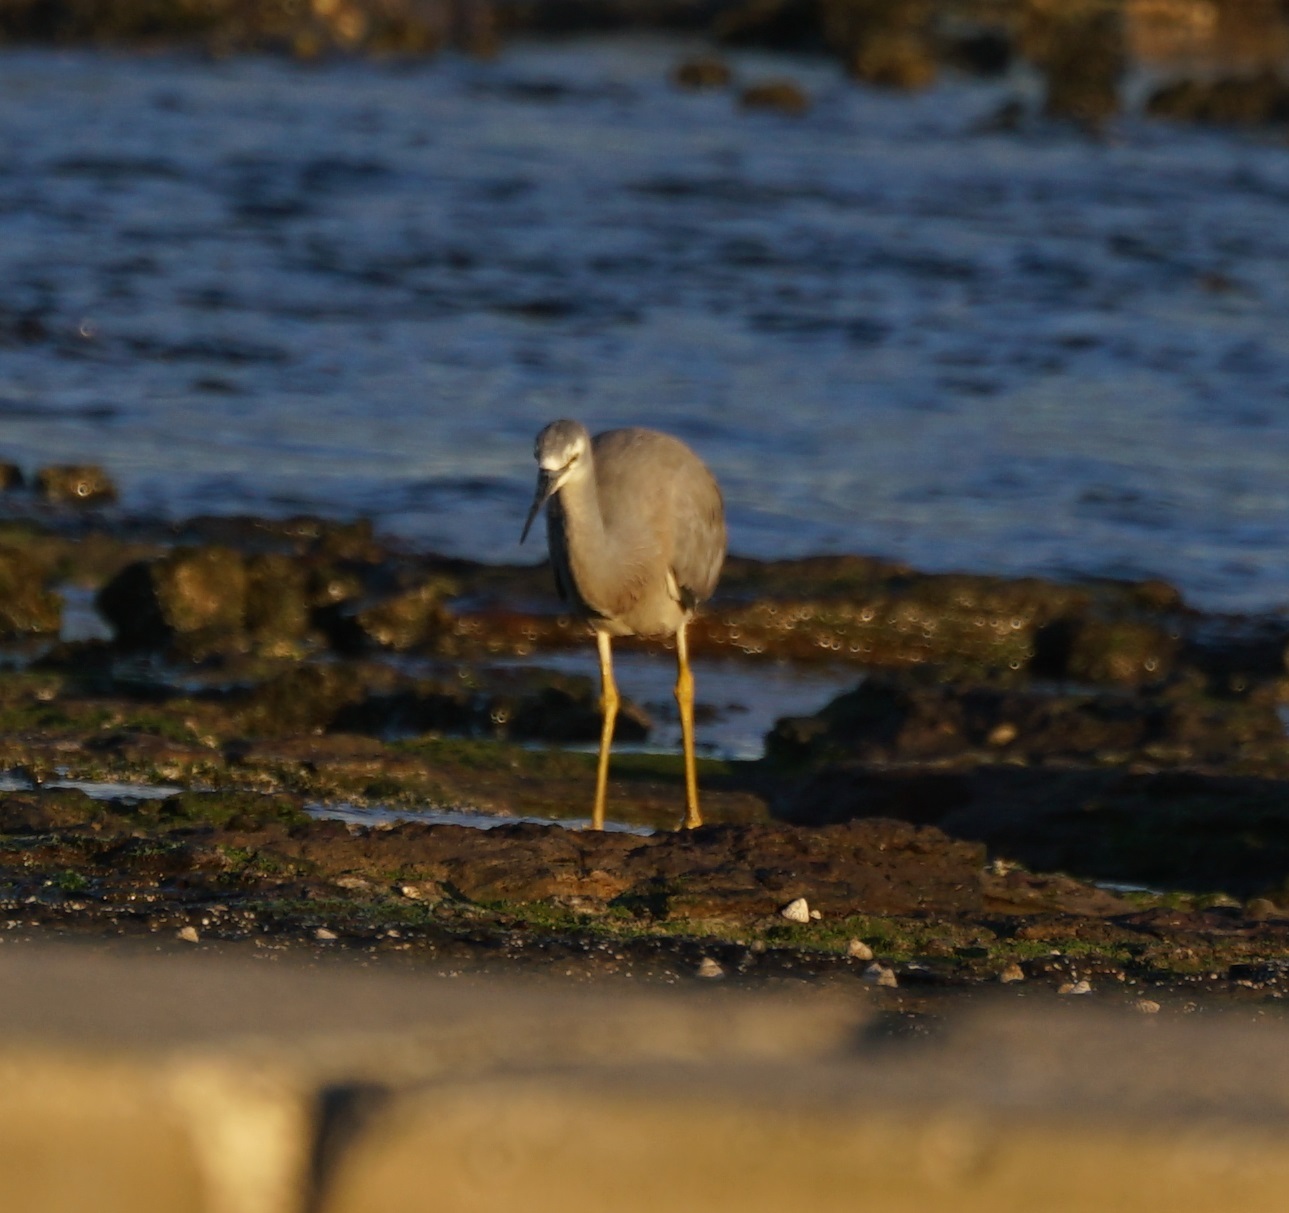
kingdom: Animalia
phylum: Chordata
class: Aves
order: Pelecaniformes
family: Ardeidae
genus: Egretta
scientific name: Egretta novaehollandiae
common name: White-faced heron
